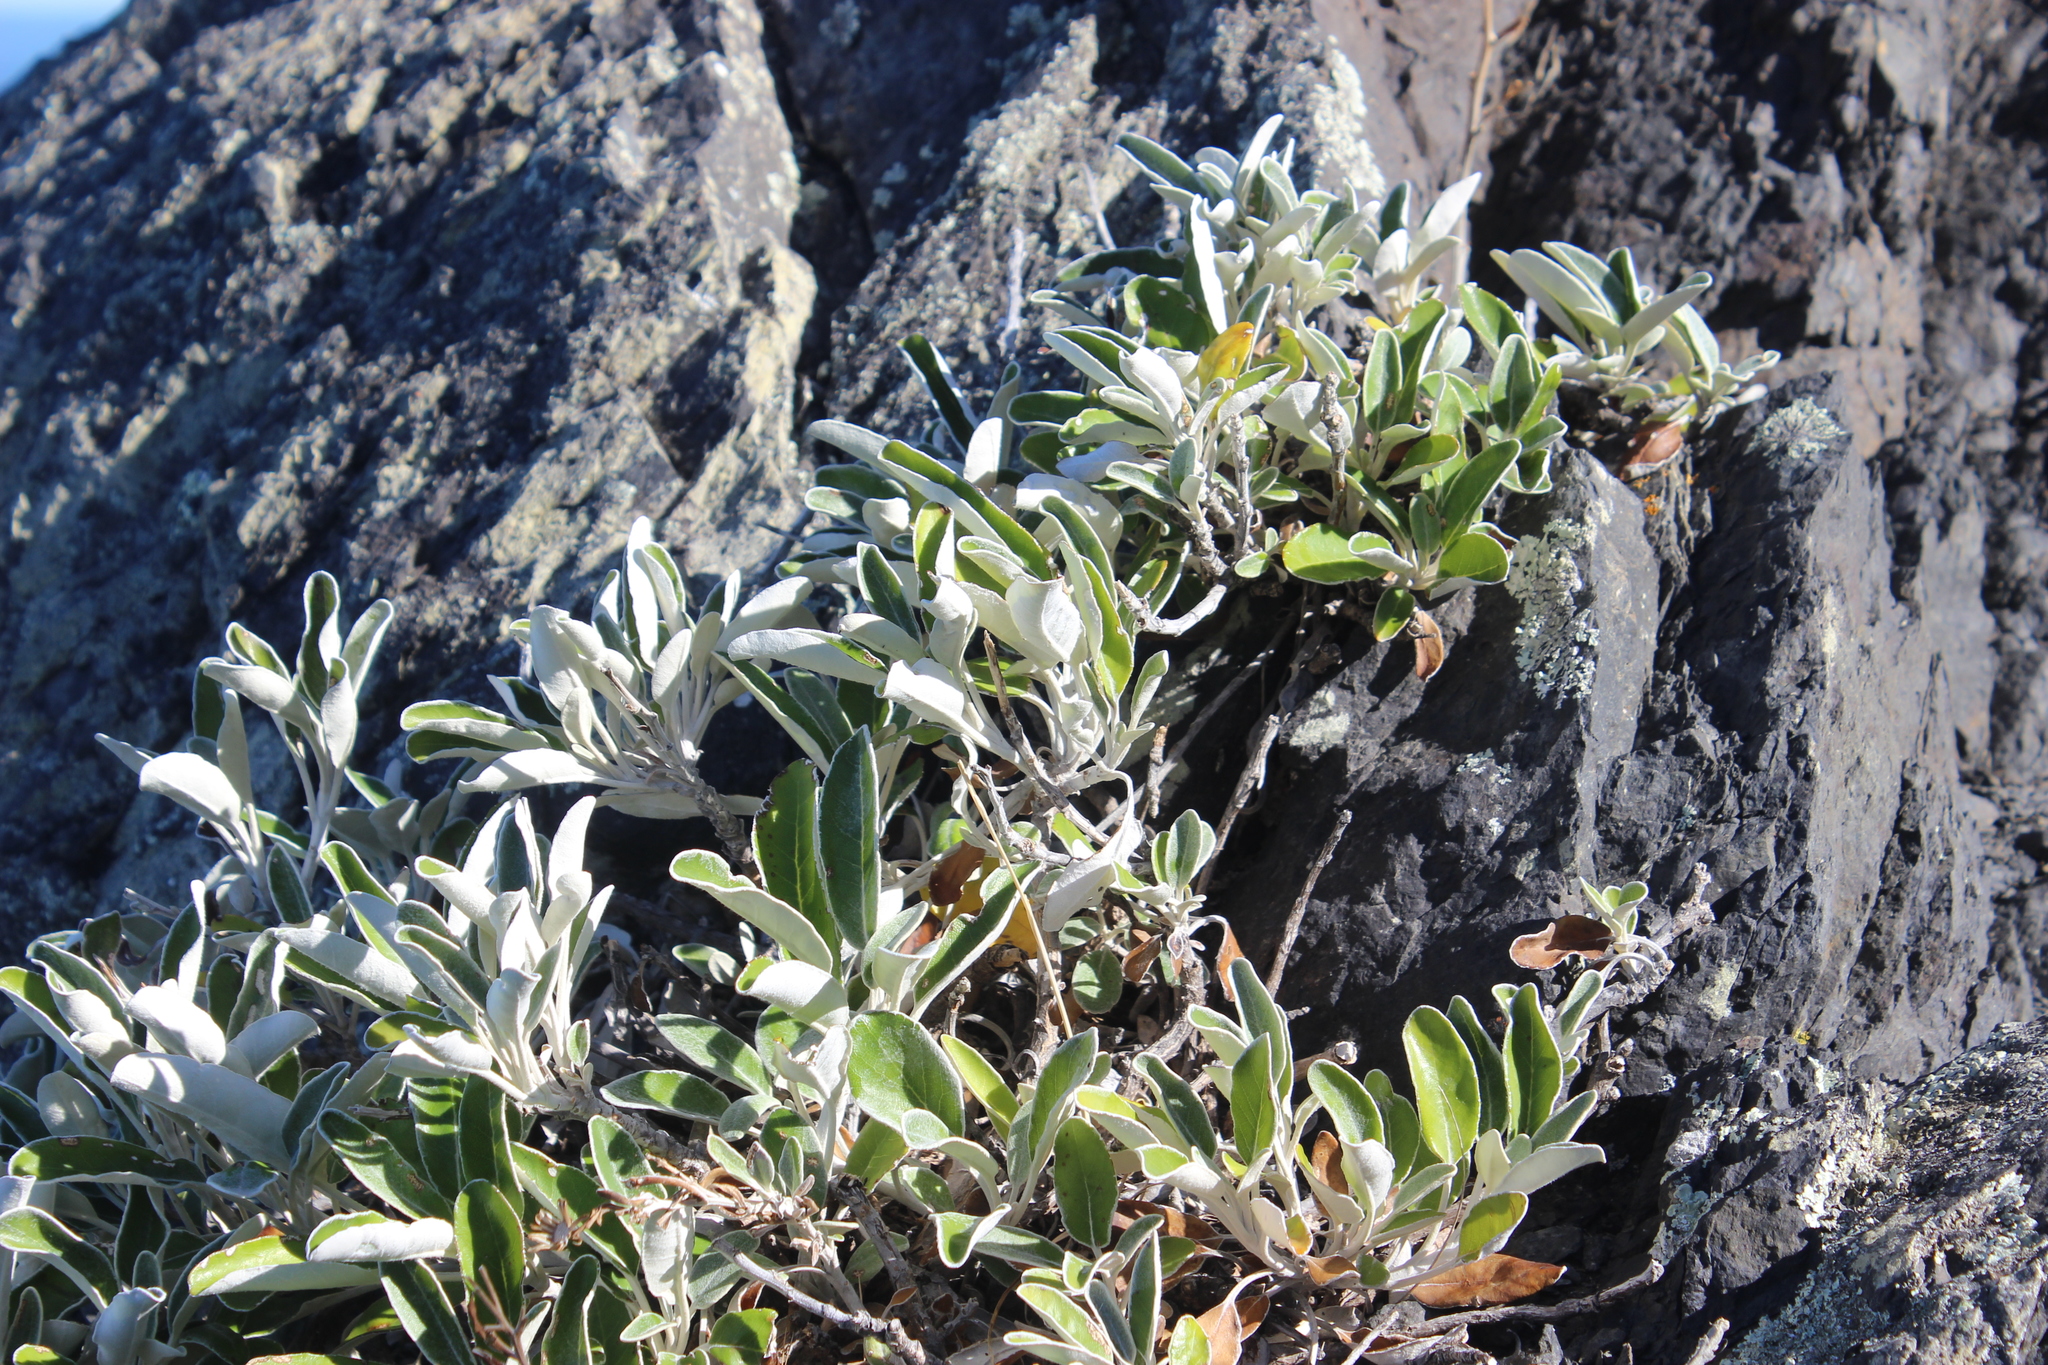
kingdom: Plantae
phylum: Tracheophyta
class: Magnoliopsida
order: Asterales
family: Asteraceae
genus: Brachyglottis
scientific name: Brachyglottis greyi
